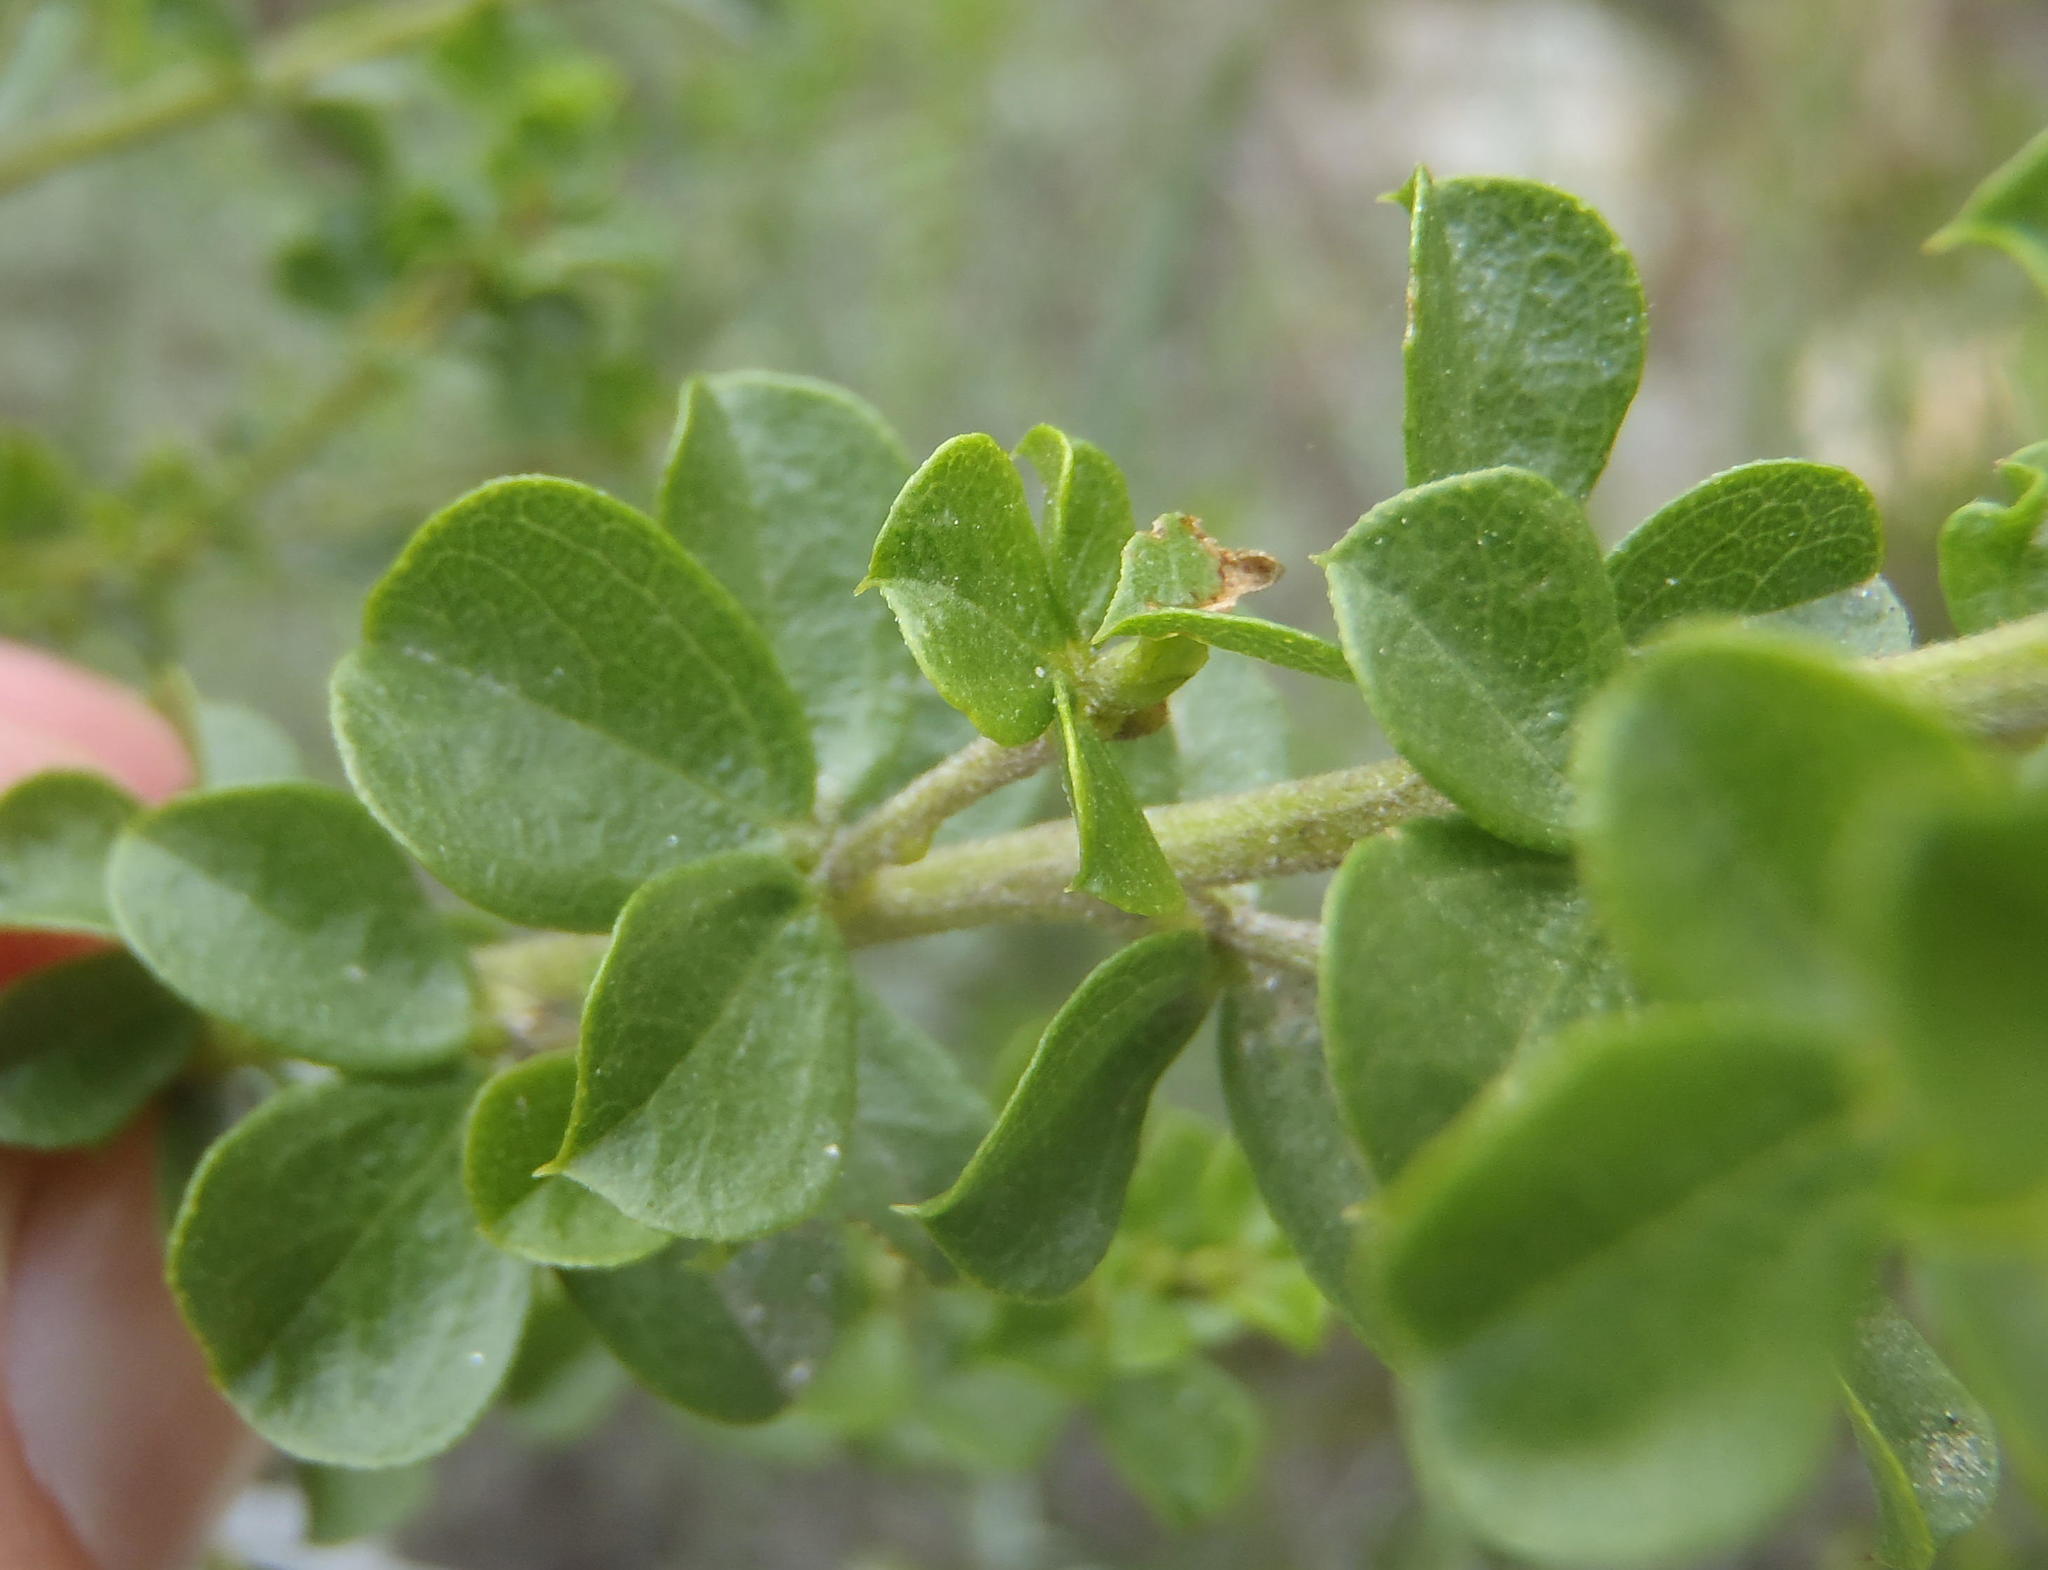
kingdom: Plantae
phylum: Tracheophyta
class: Magnoliopsida
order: Fabales
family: Fabaceae
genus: Psoralea
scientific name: Psoralea acuminata
